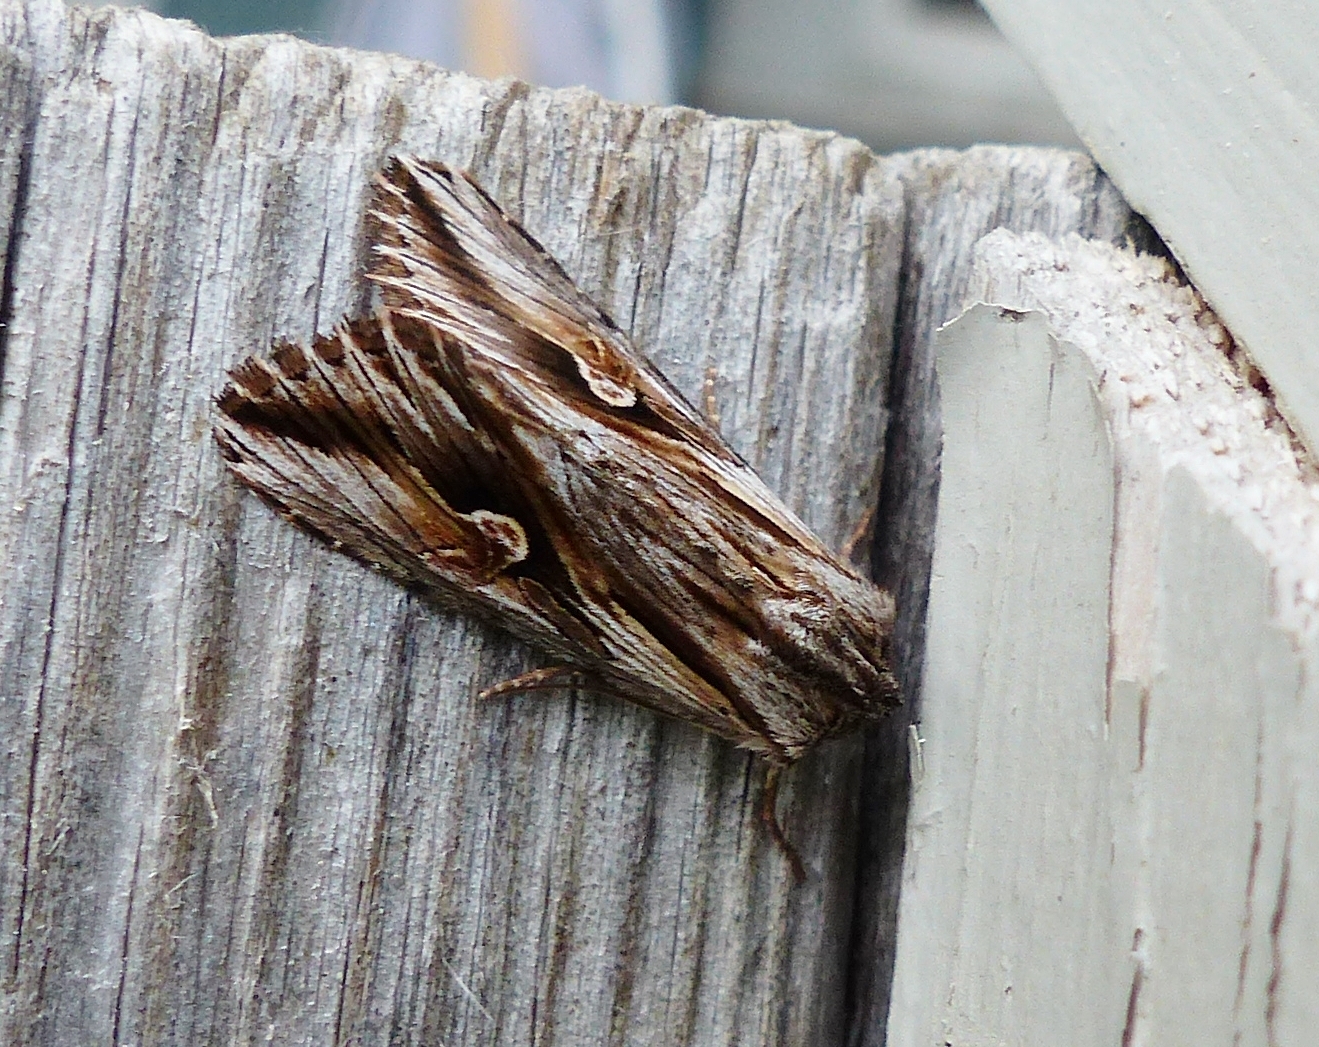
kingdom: Animalia
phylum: Arthropoda
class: Insecta
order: Lepidoptera
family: Noctuidae
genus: Nedra
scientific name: Nedra ramosula
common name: Gray half-spot
